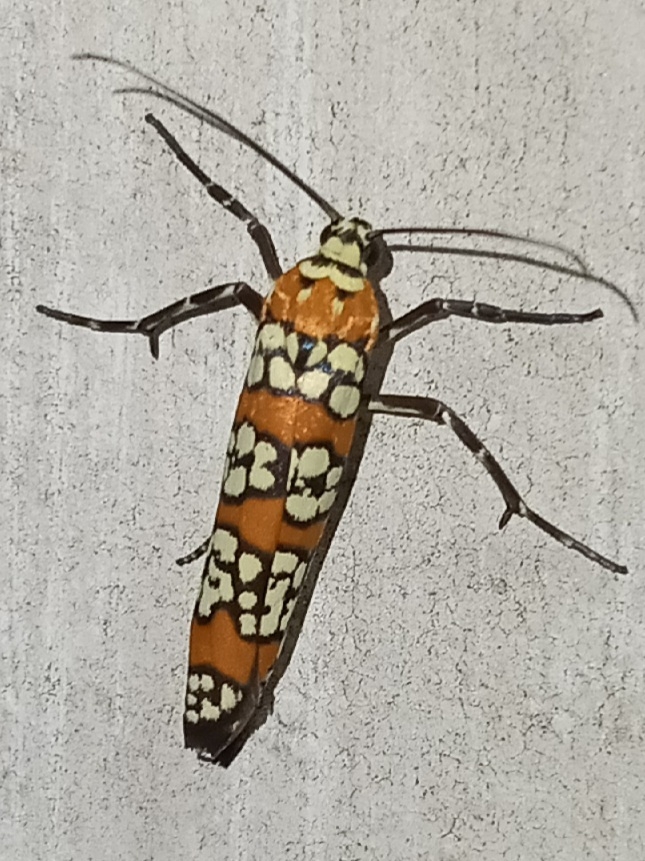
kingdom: Animalia
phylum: Arthropoda
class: Insecta
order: Lepidoptera
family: Attevidae
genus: Atteva
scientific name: Atteva punctella
